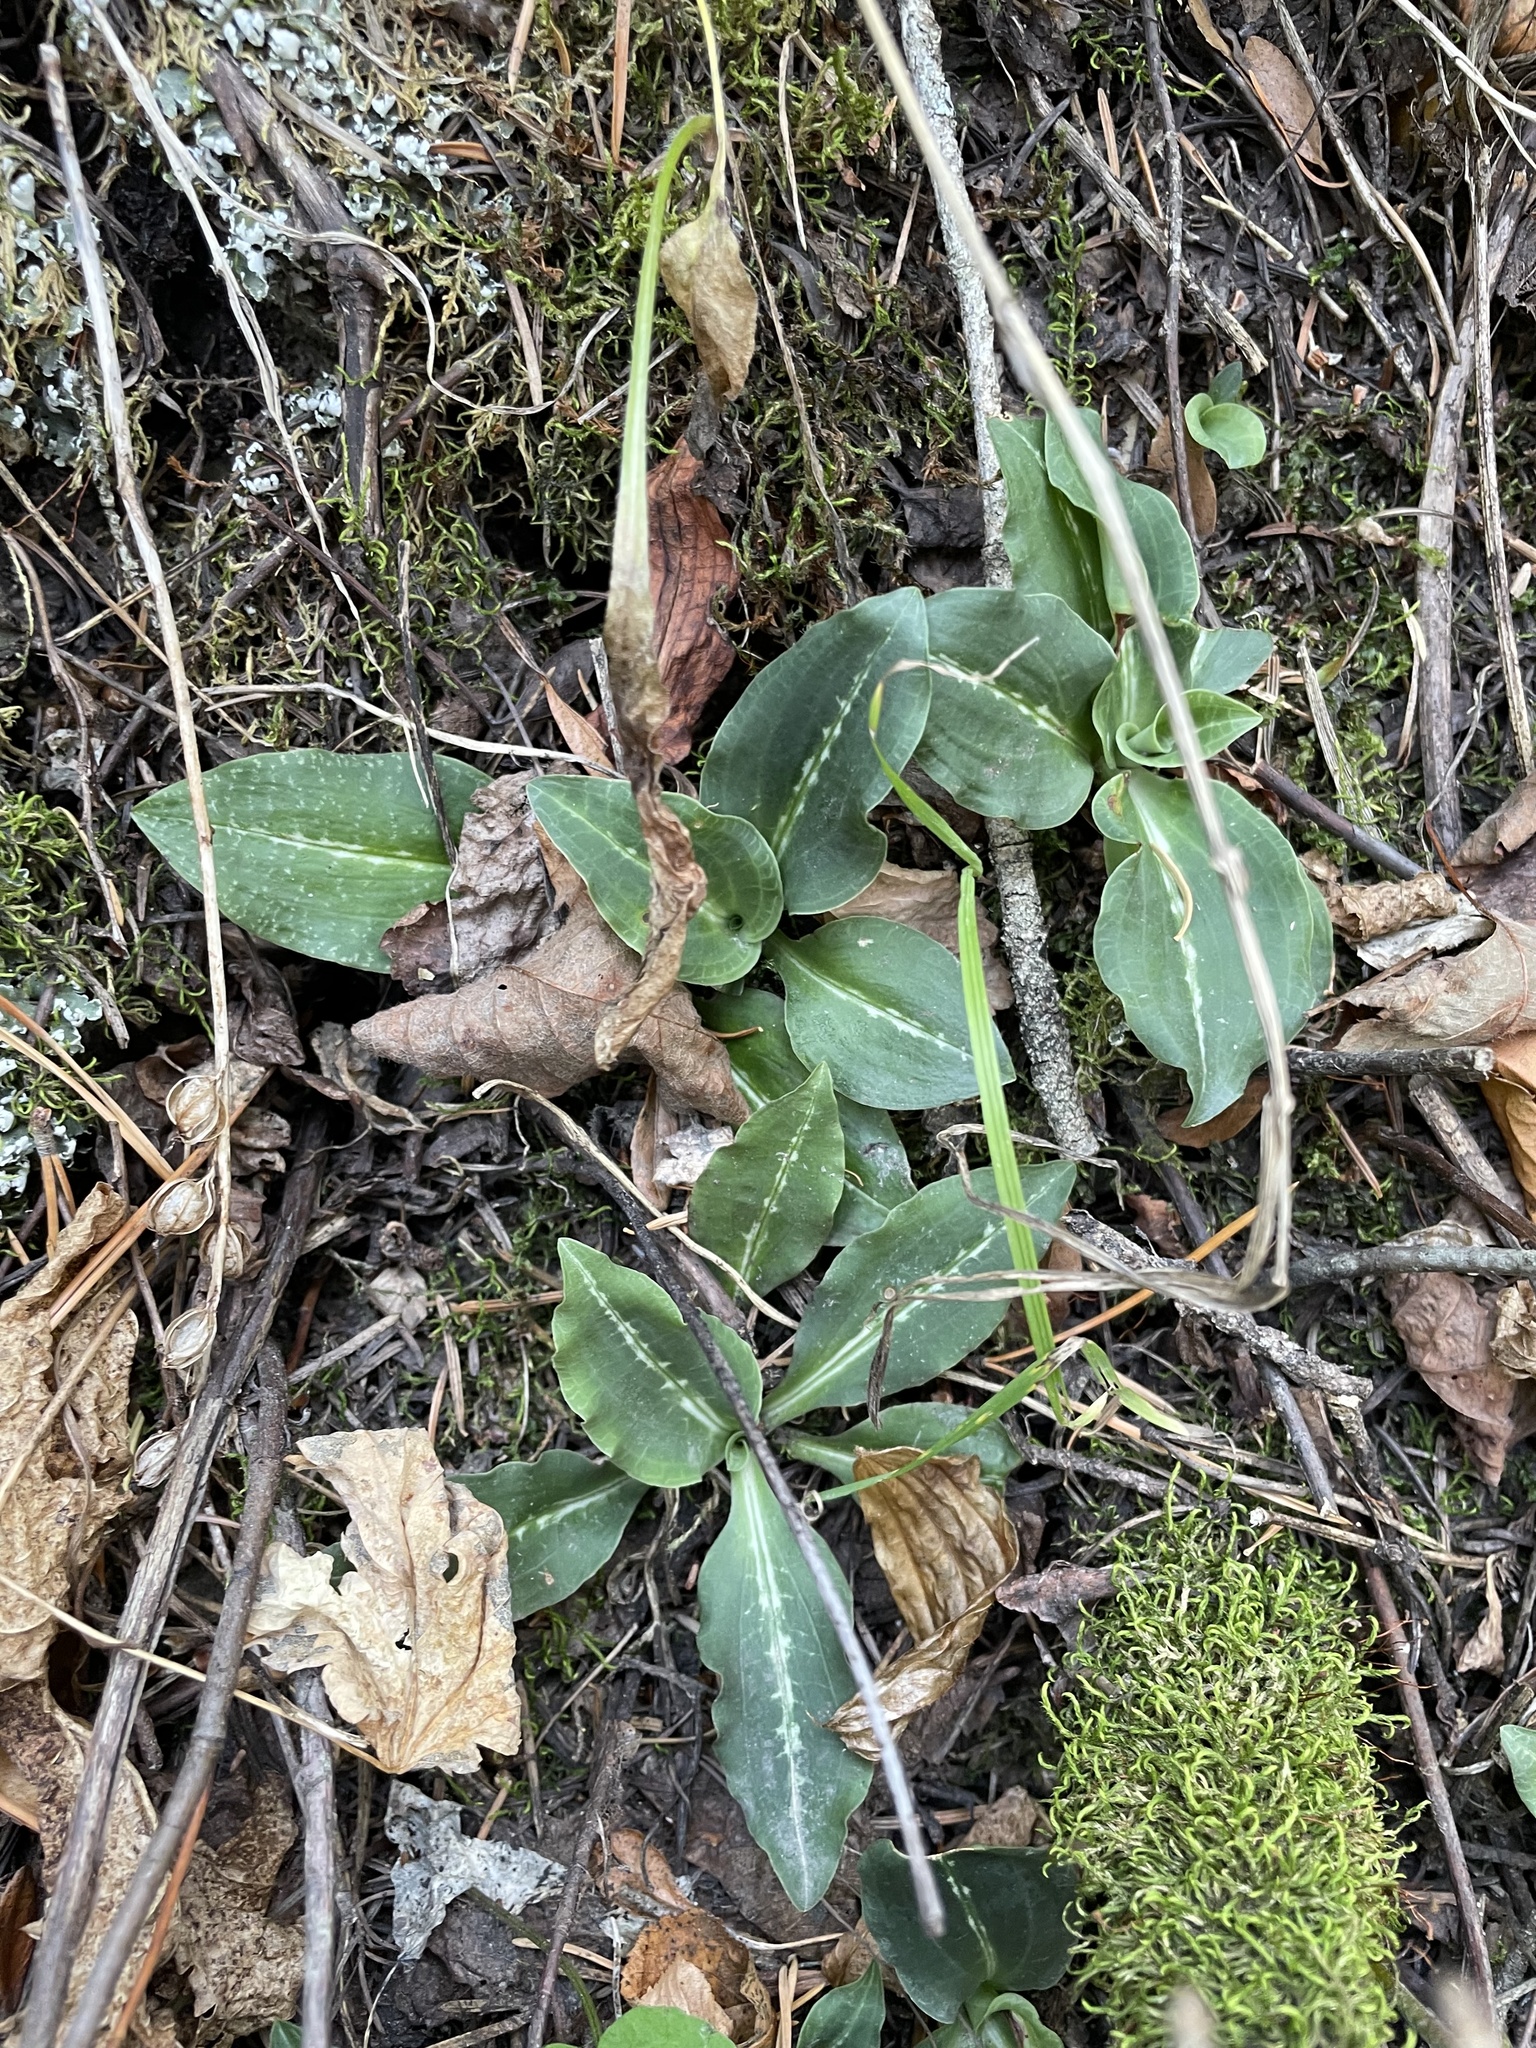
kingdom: Plantae
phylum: Tracheophyta
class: Liliopsida
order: Asparagales
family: Orchidaceae
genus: Goodyera
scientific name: Goodyera oblongifolia
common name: Giant rattlesnake-plantain
